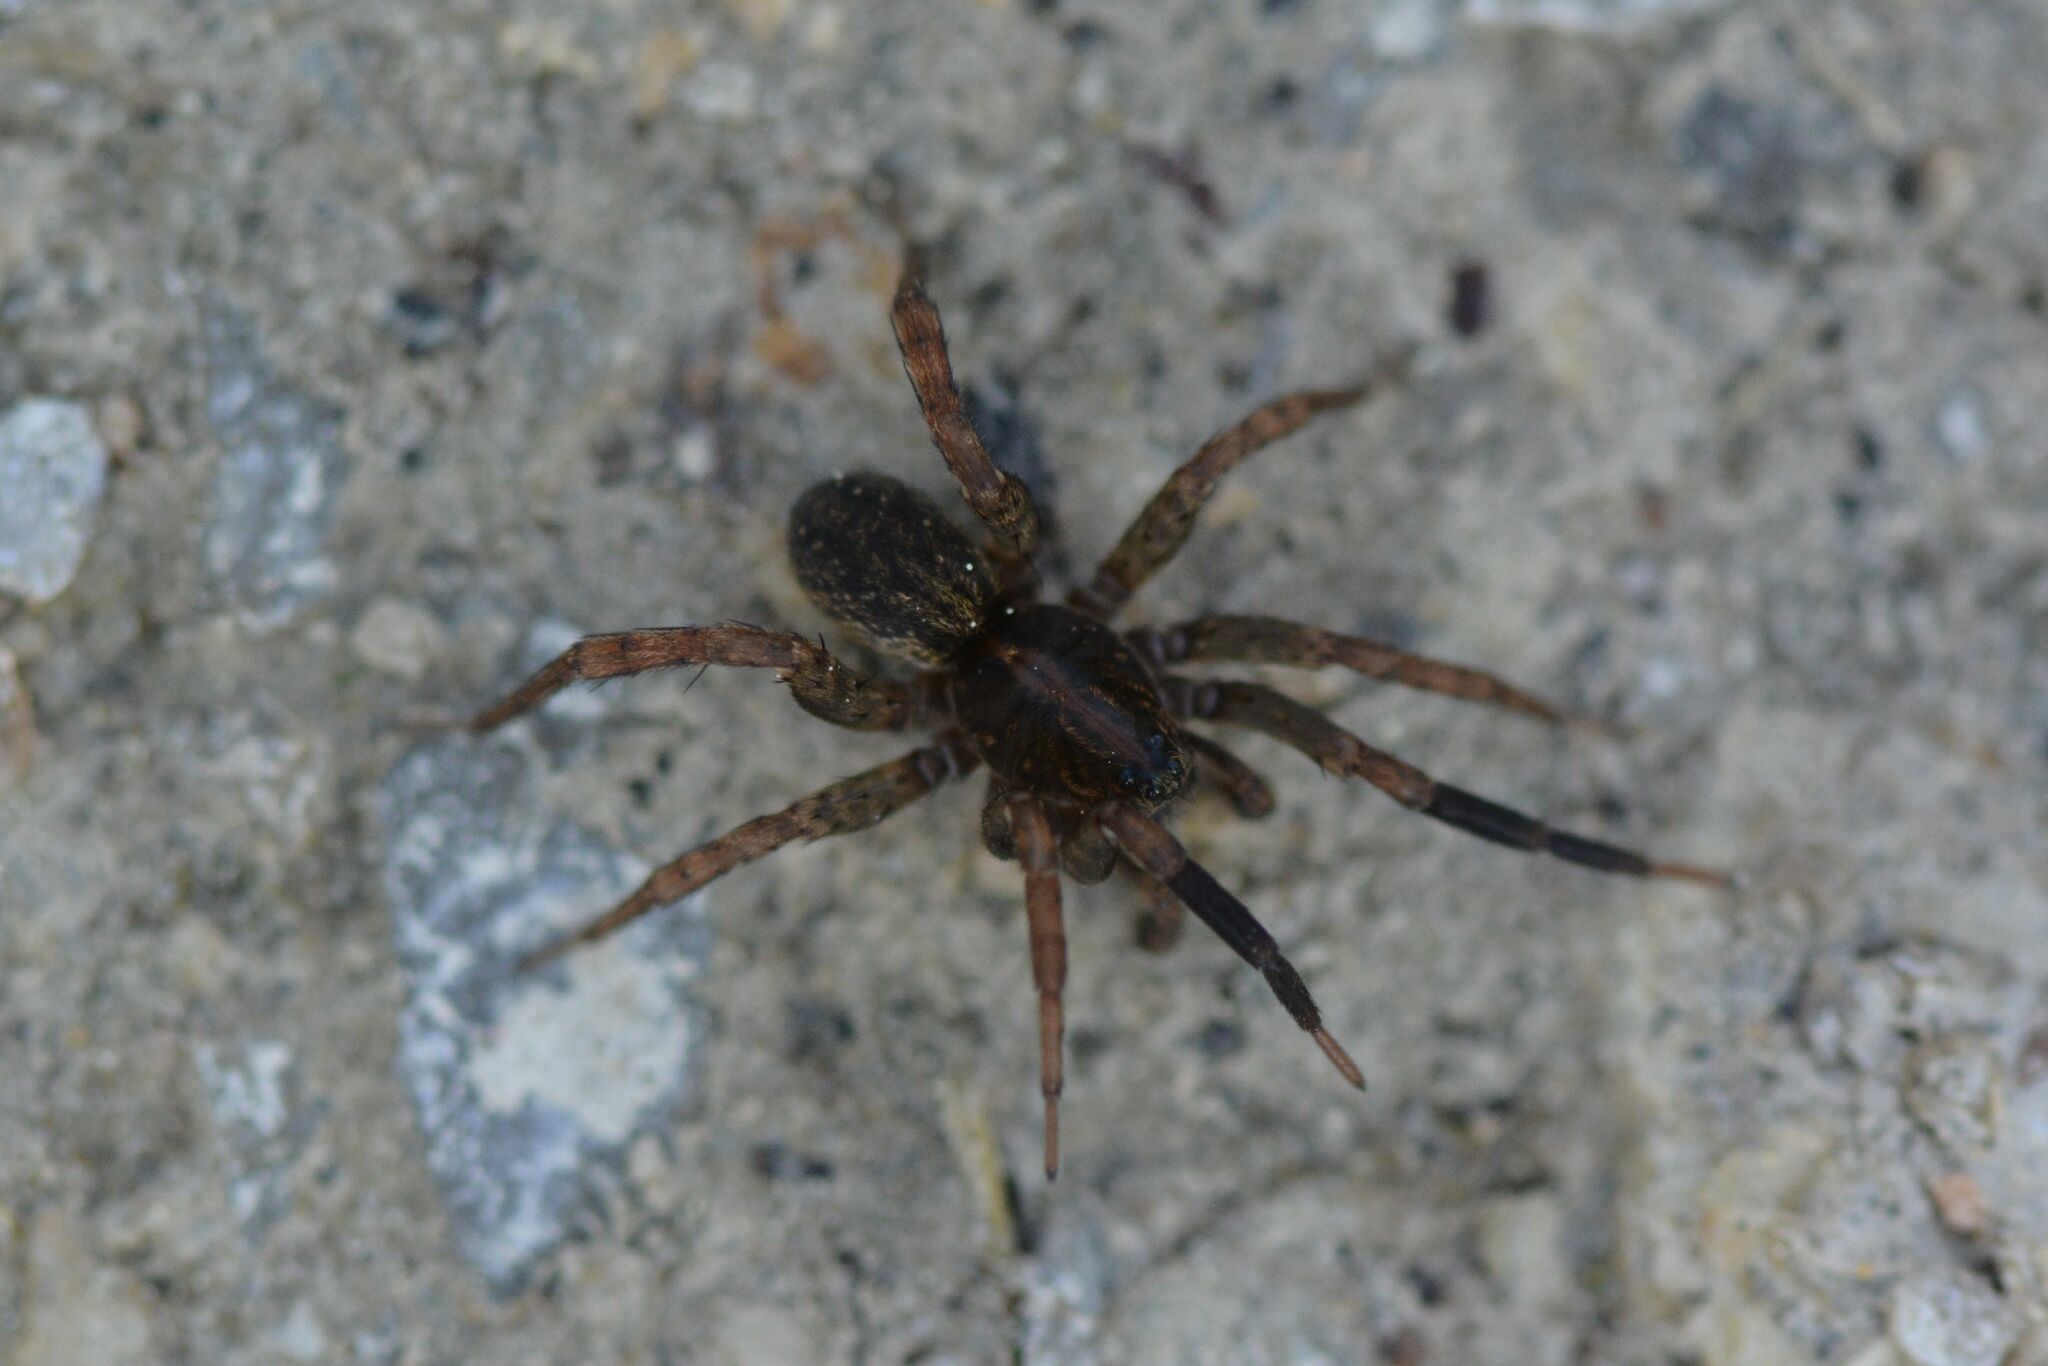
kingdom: Animalia
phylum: Arthropoda
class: Arachnida
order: Araneae
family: Lycosidae
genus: Trochosa
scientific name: Trochosa terricola
